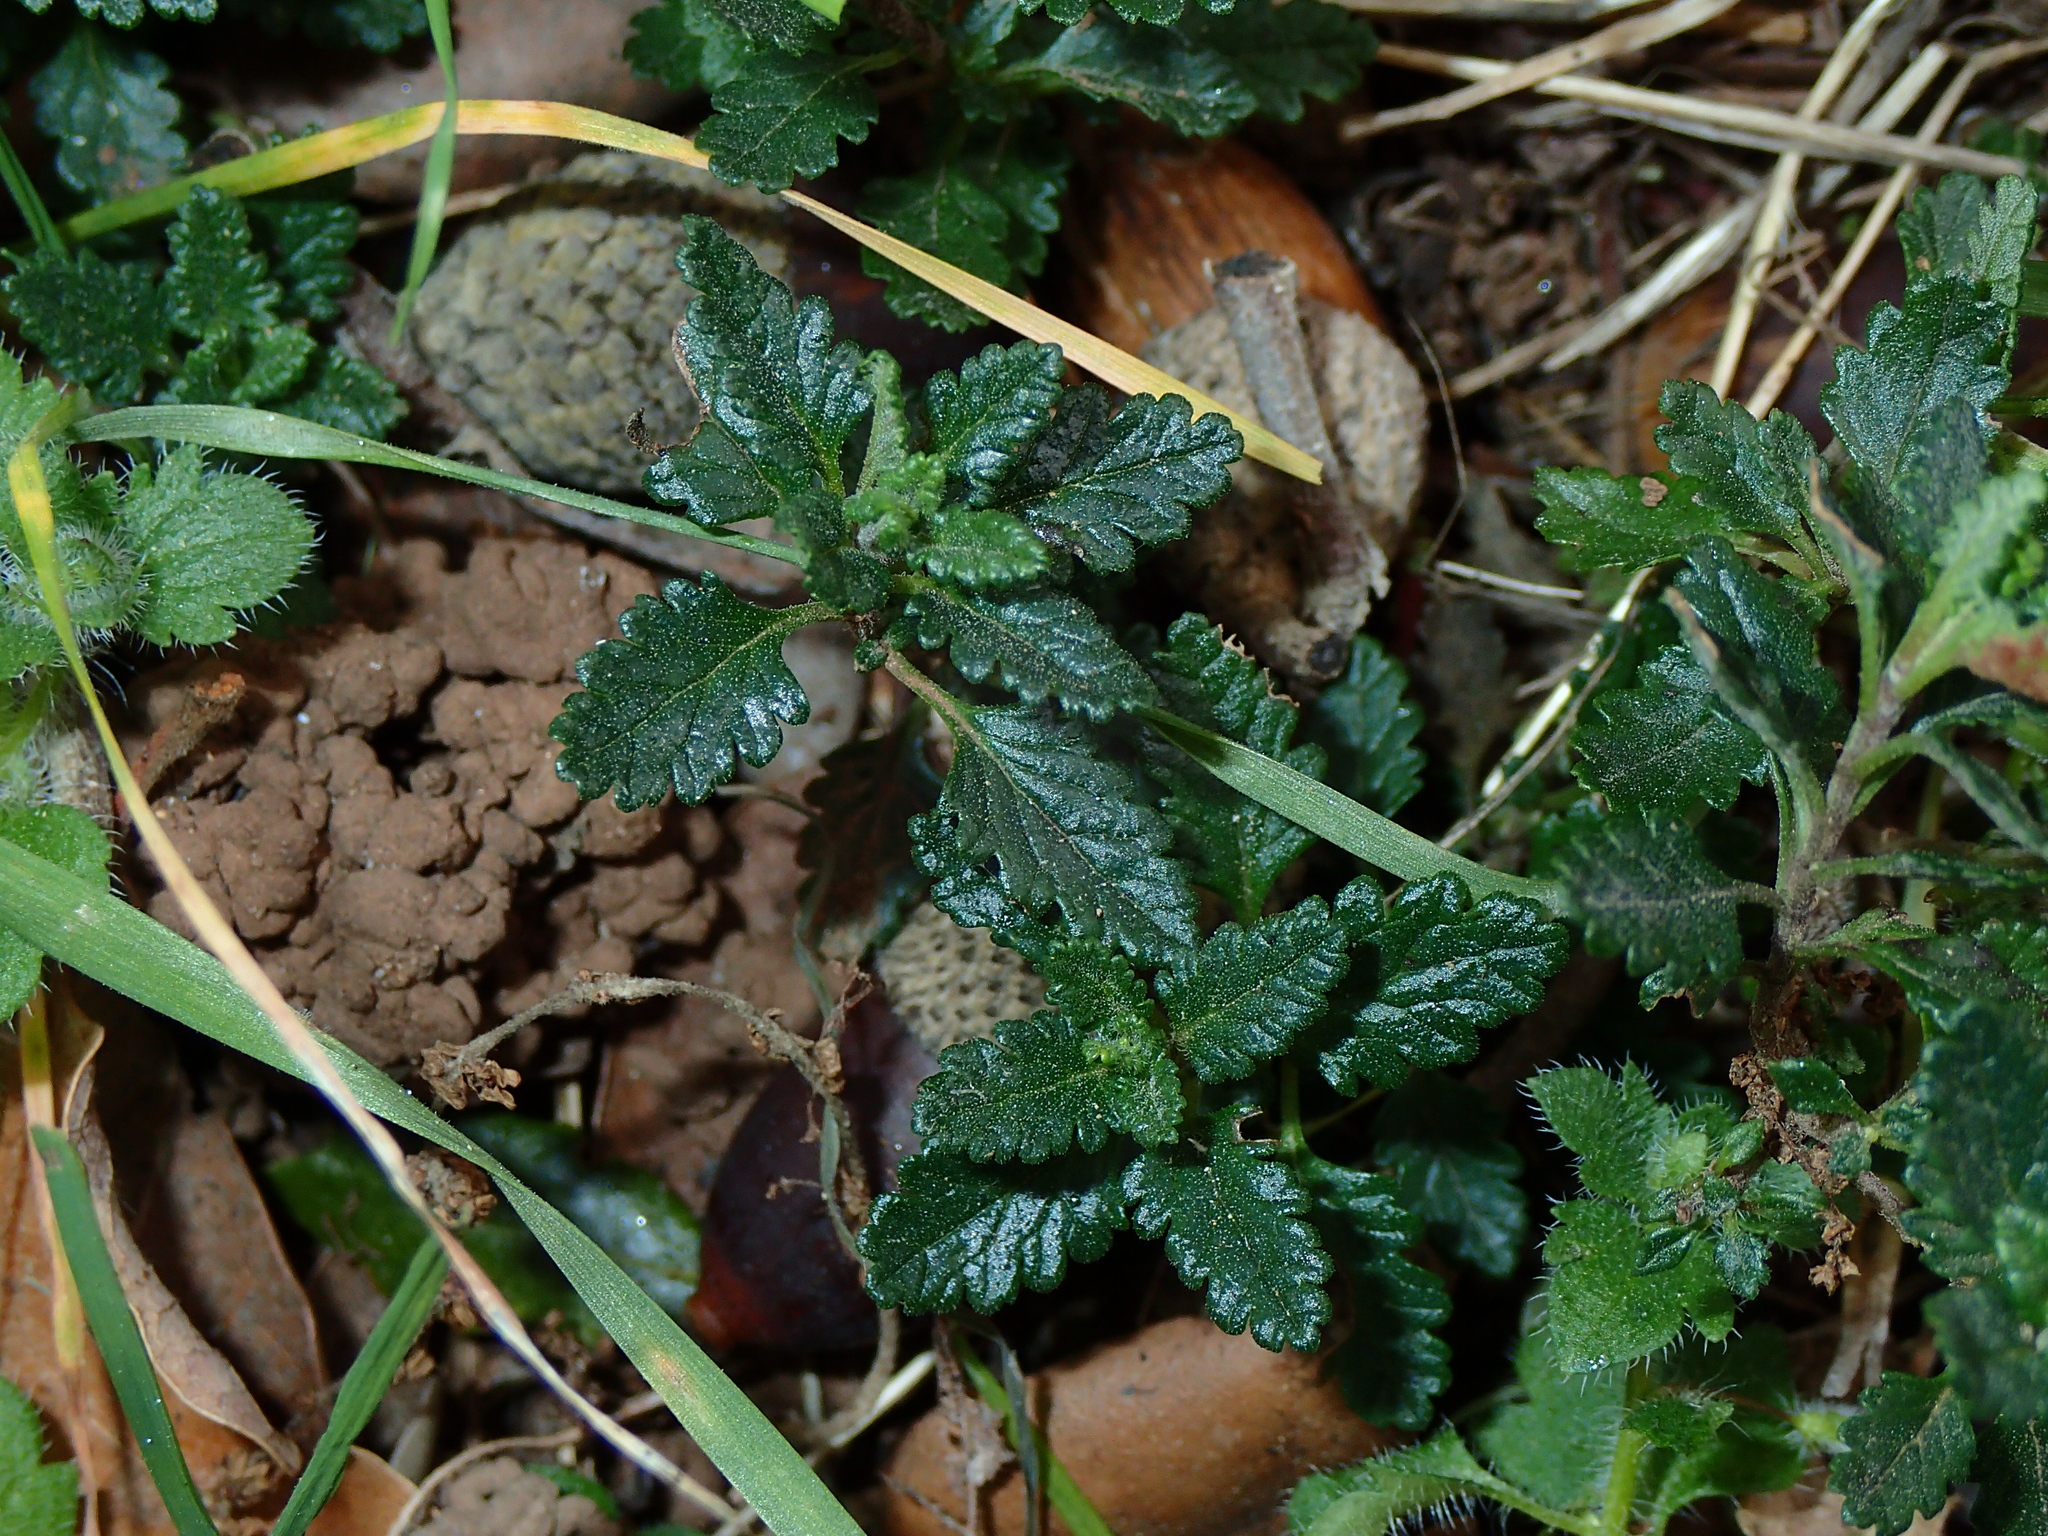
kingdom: Plantae
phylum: Tracheophyta
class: Magnoliopsida
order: Lamiales
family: Lamiaceae
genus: Teucrium
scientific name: Teucrium chamaedrys
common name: Wall germander
